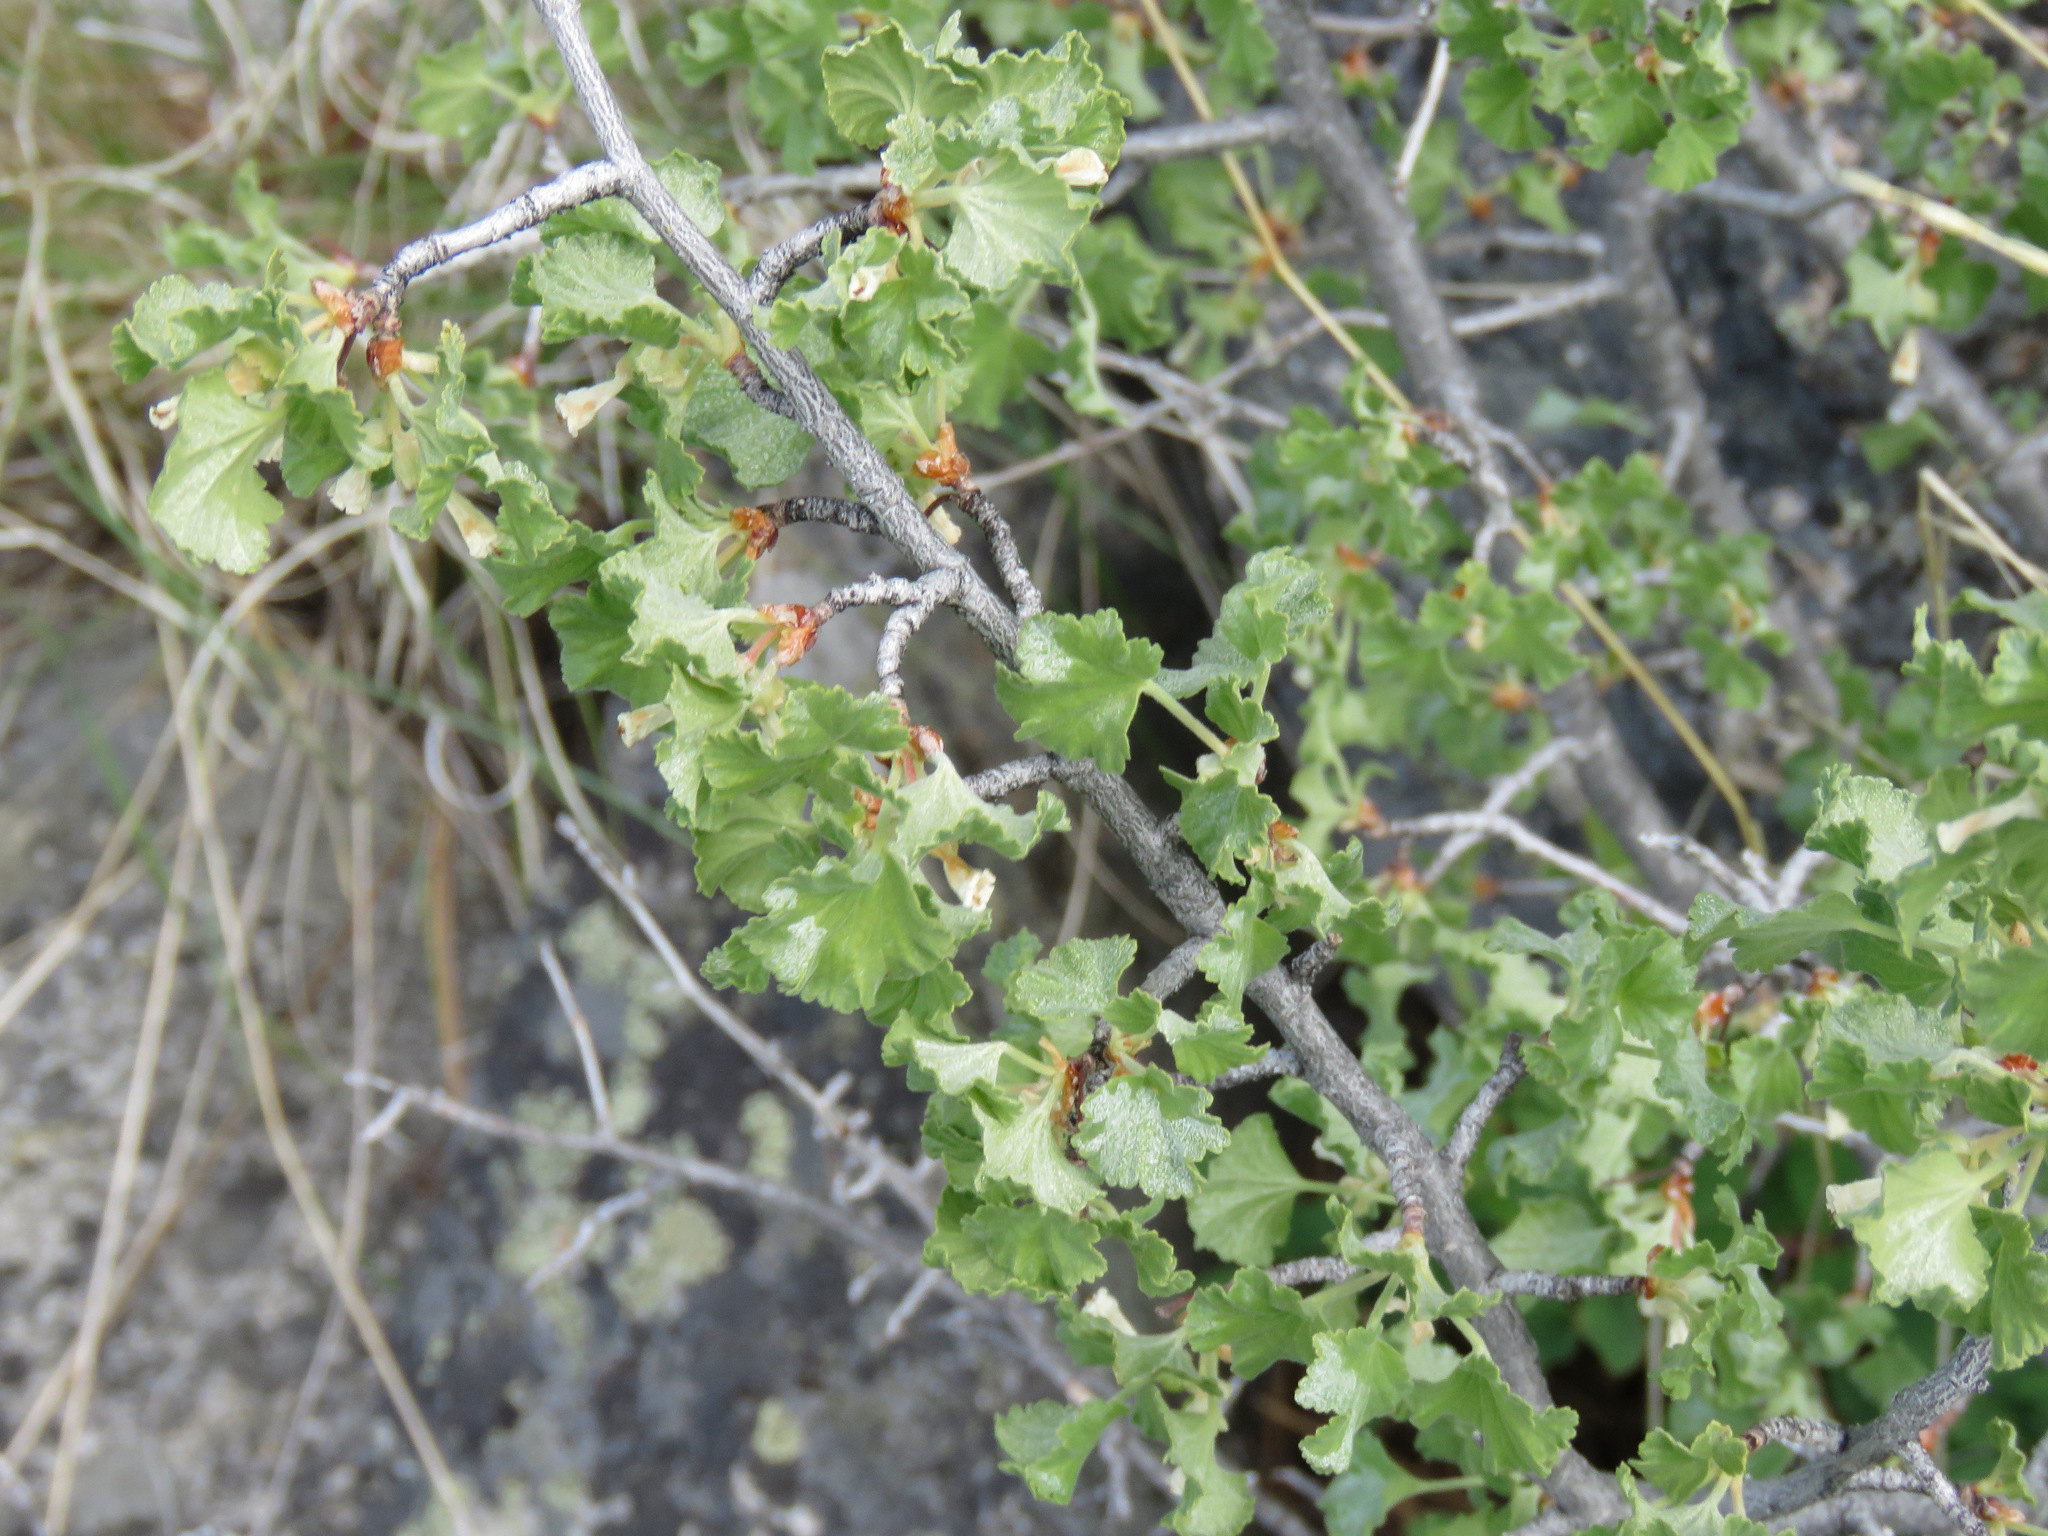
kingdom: Plantae
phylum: Tracheophyta
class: Magnoliopsida
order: Saxifragales
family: Grossulariaceae
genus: Ribes
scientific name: Ribes cereum
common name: Wax currant
